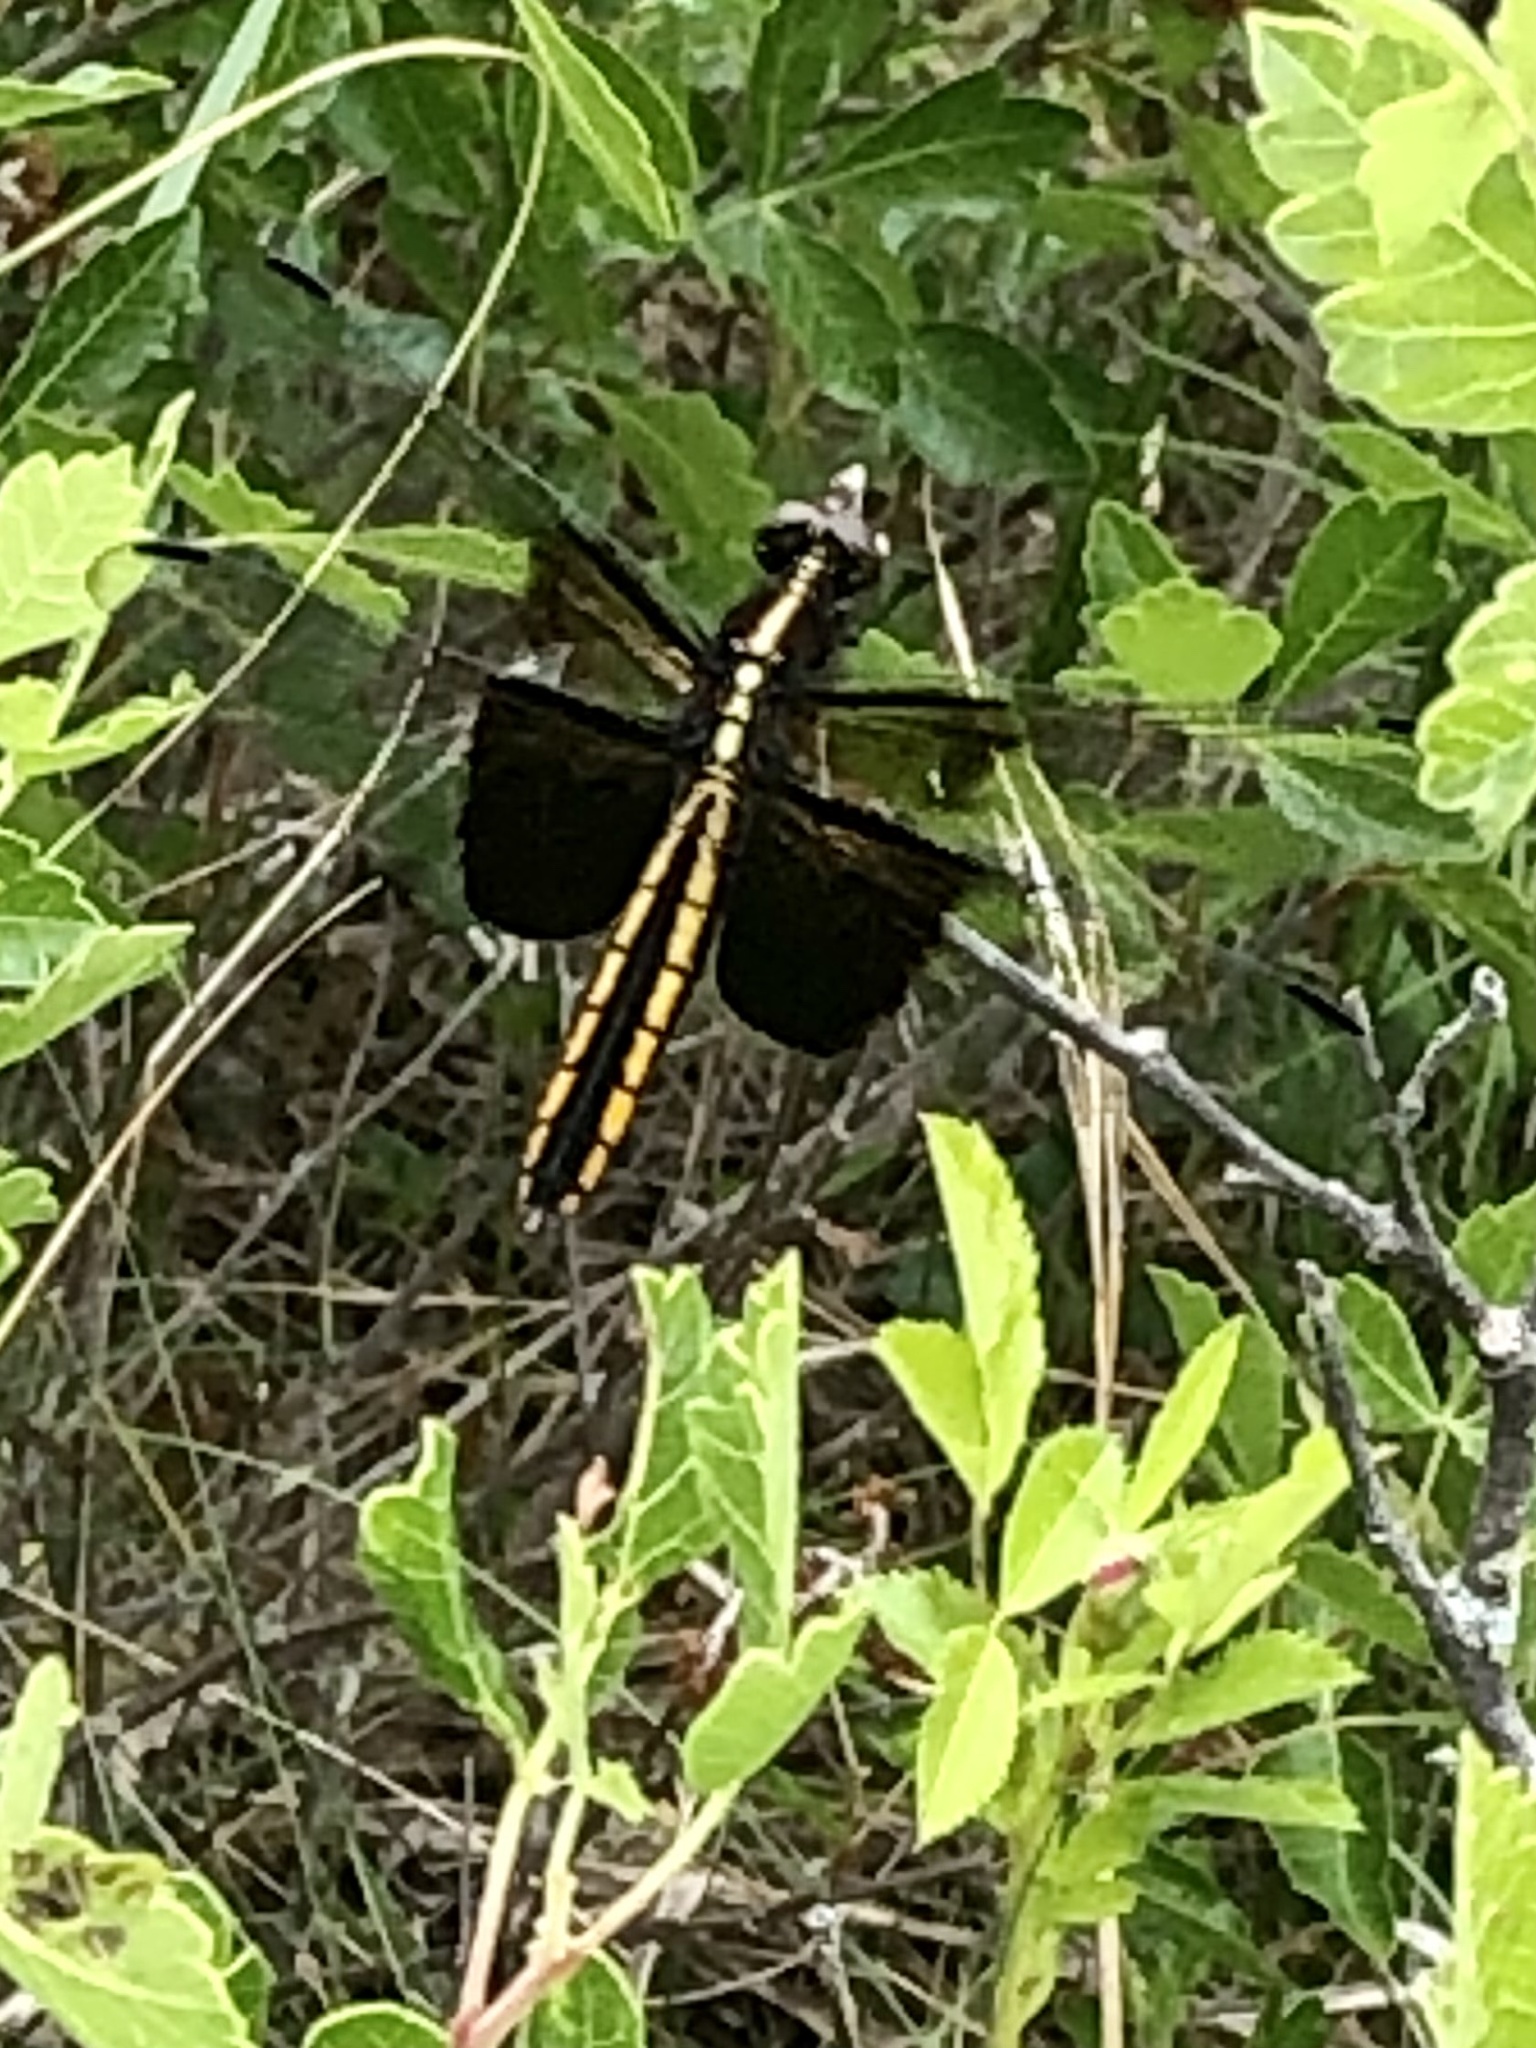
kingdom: Animalia
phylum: Arthropoda
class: Insecta
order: Odonata
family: Libellulidae
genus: Libellula
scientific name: Libellula luctuosa
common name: Widow skimmer
